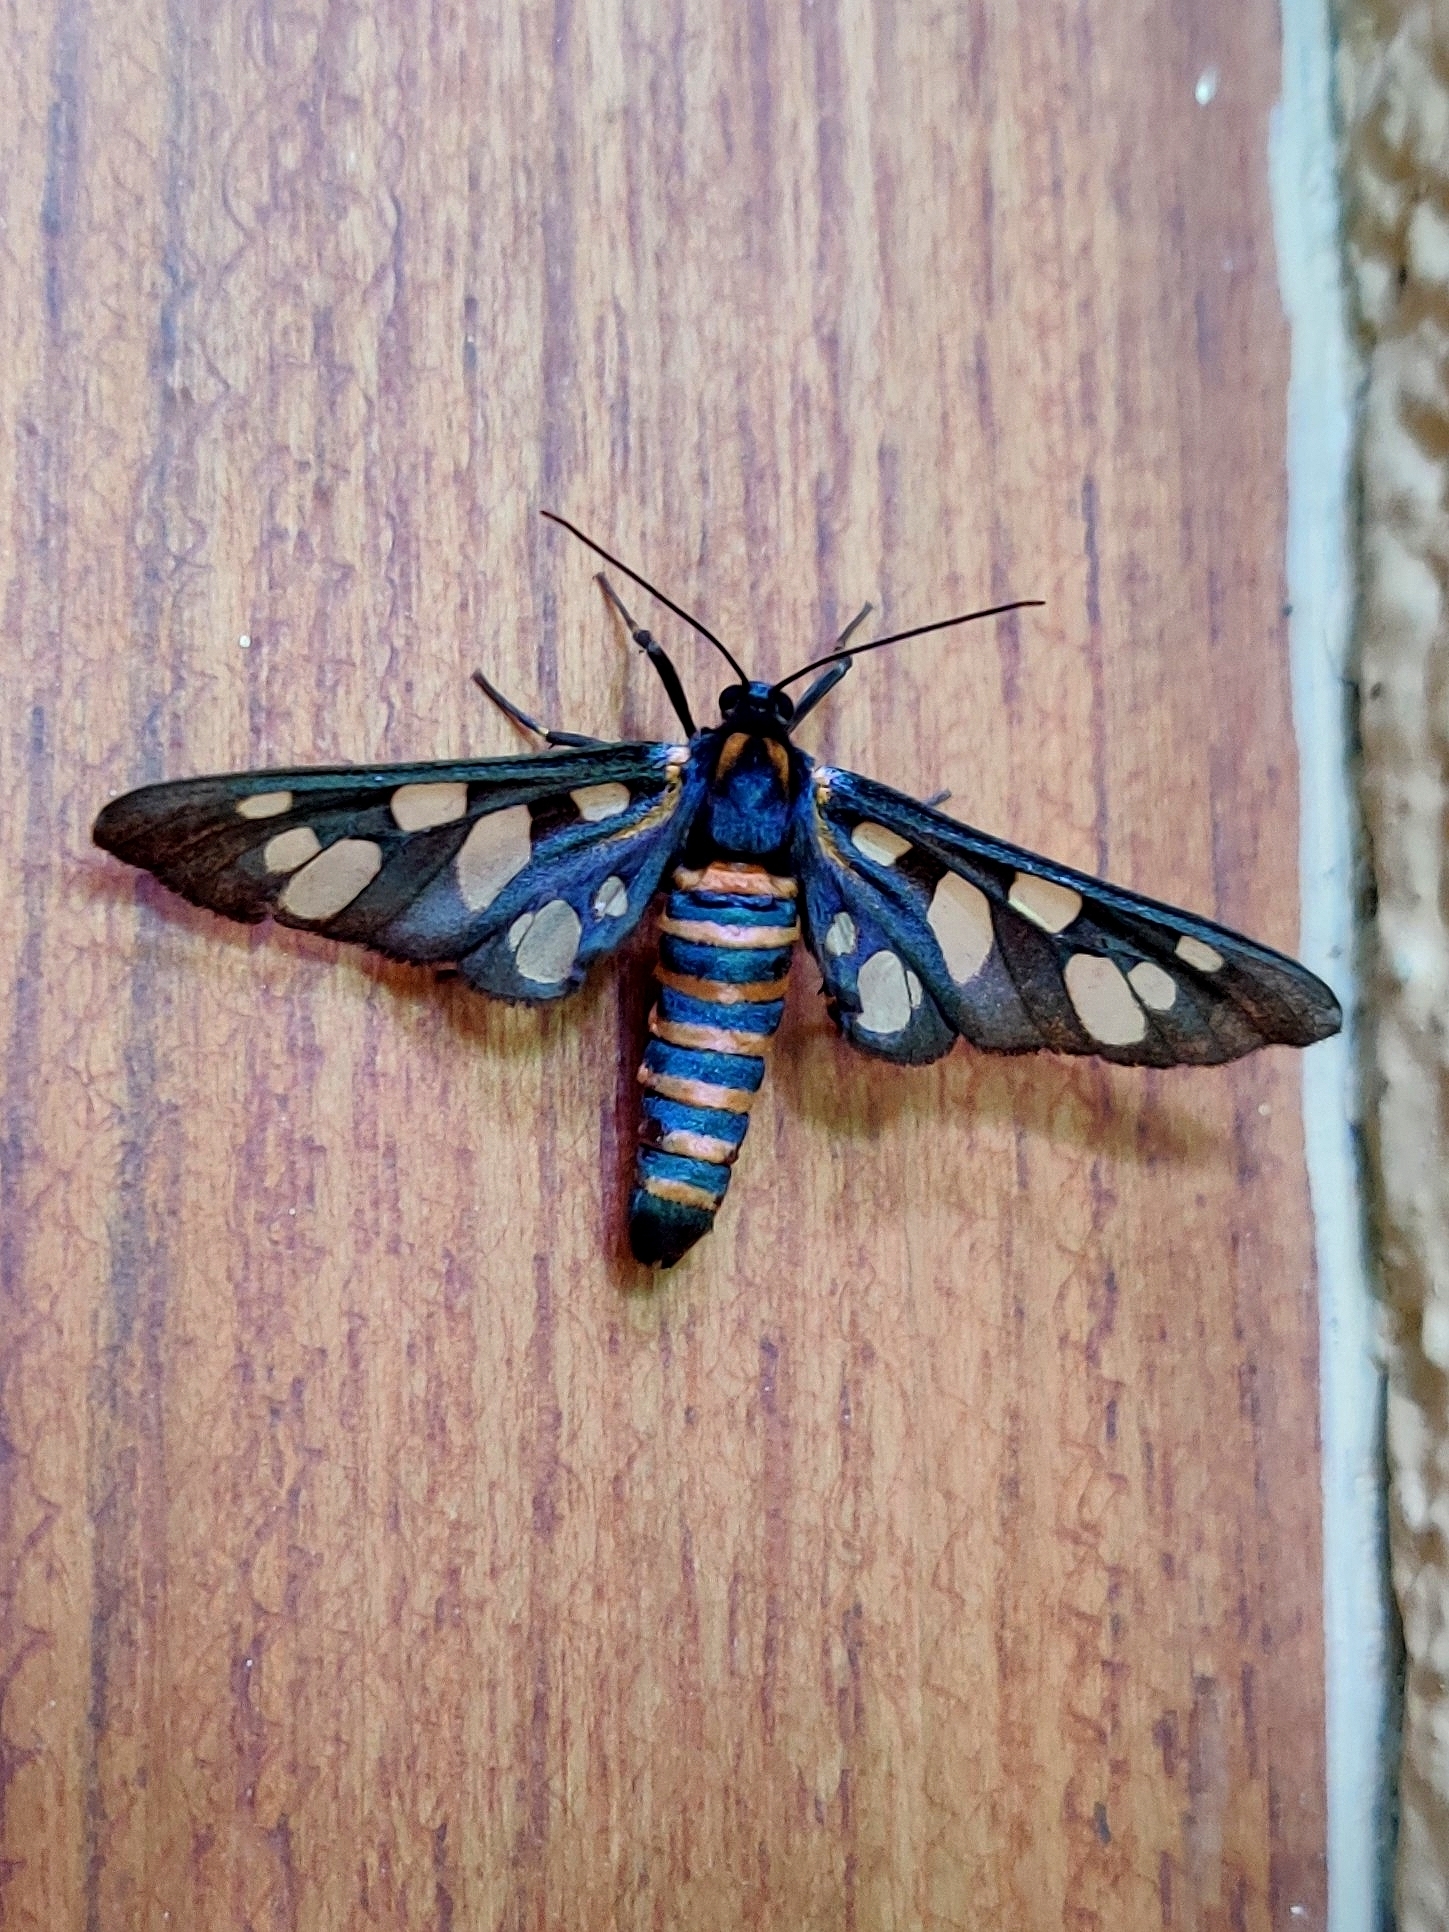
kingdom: Animalia
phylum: Arthropoda
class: Insecta
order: Lepidoptera
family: Erebidae
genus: Amata
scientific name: Amata passalis
